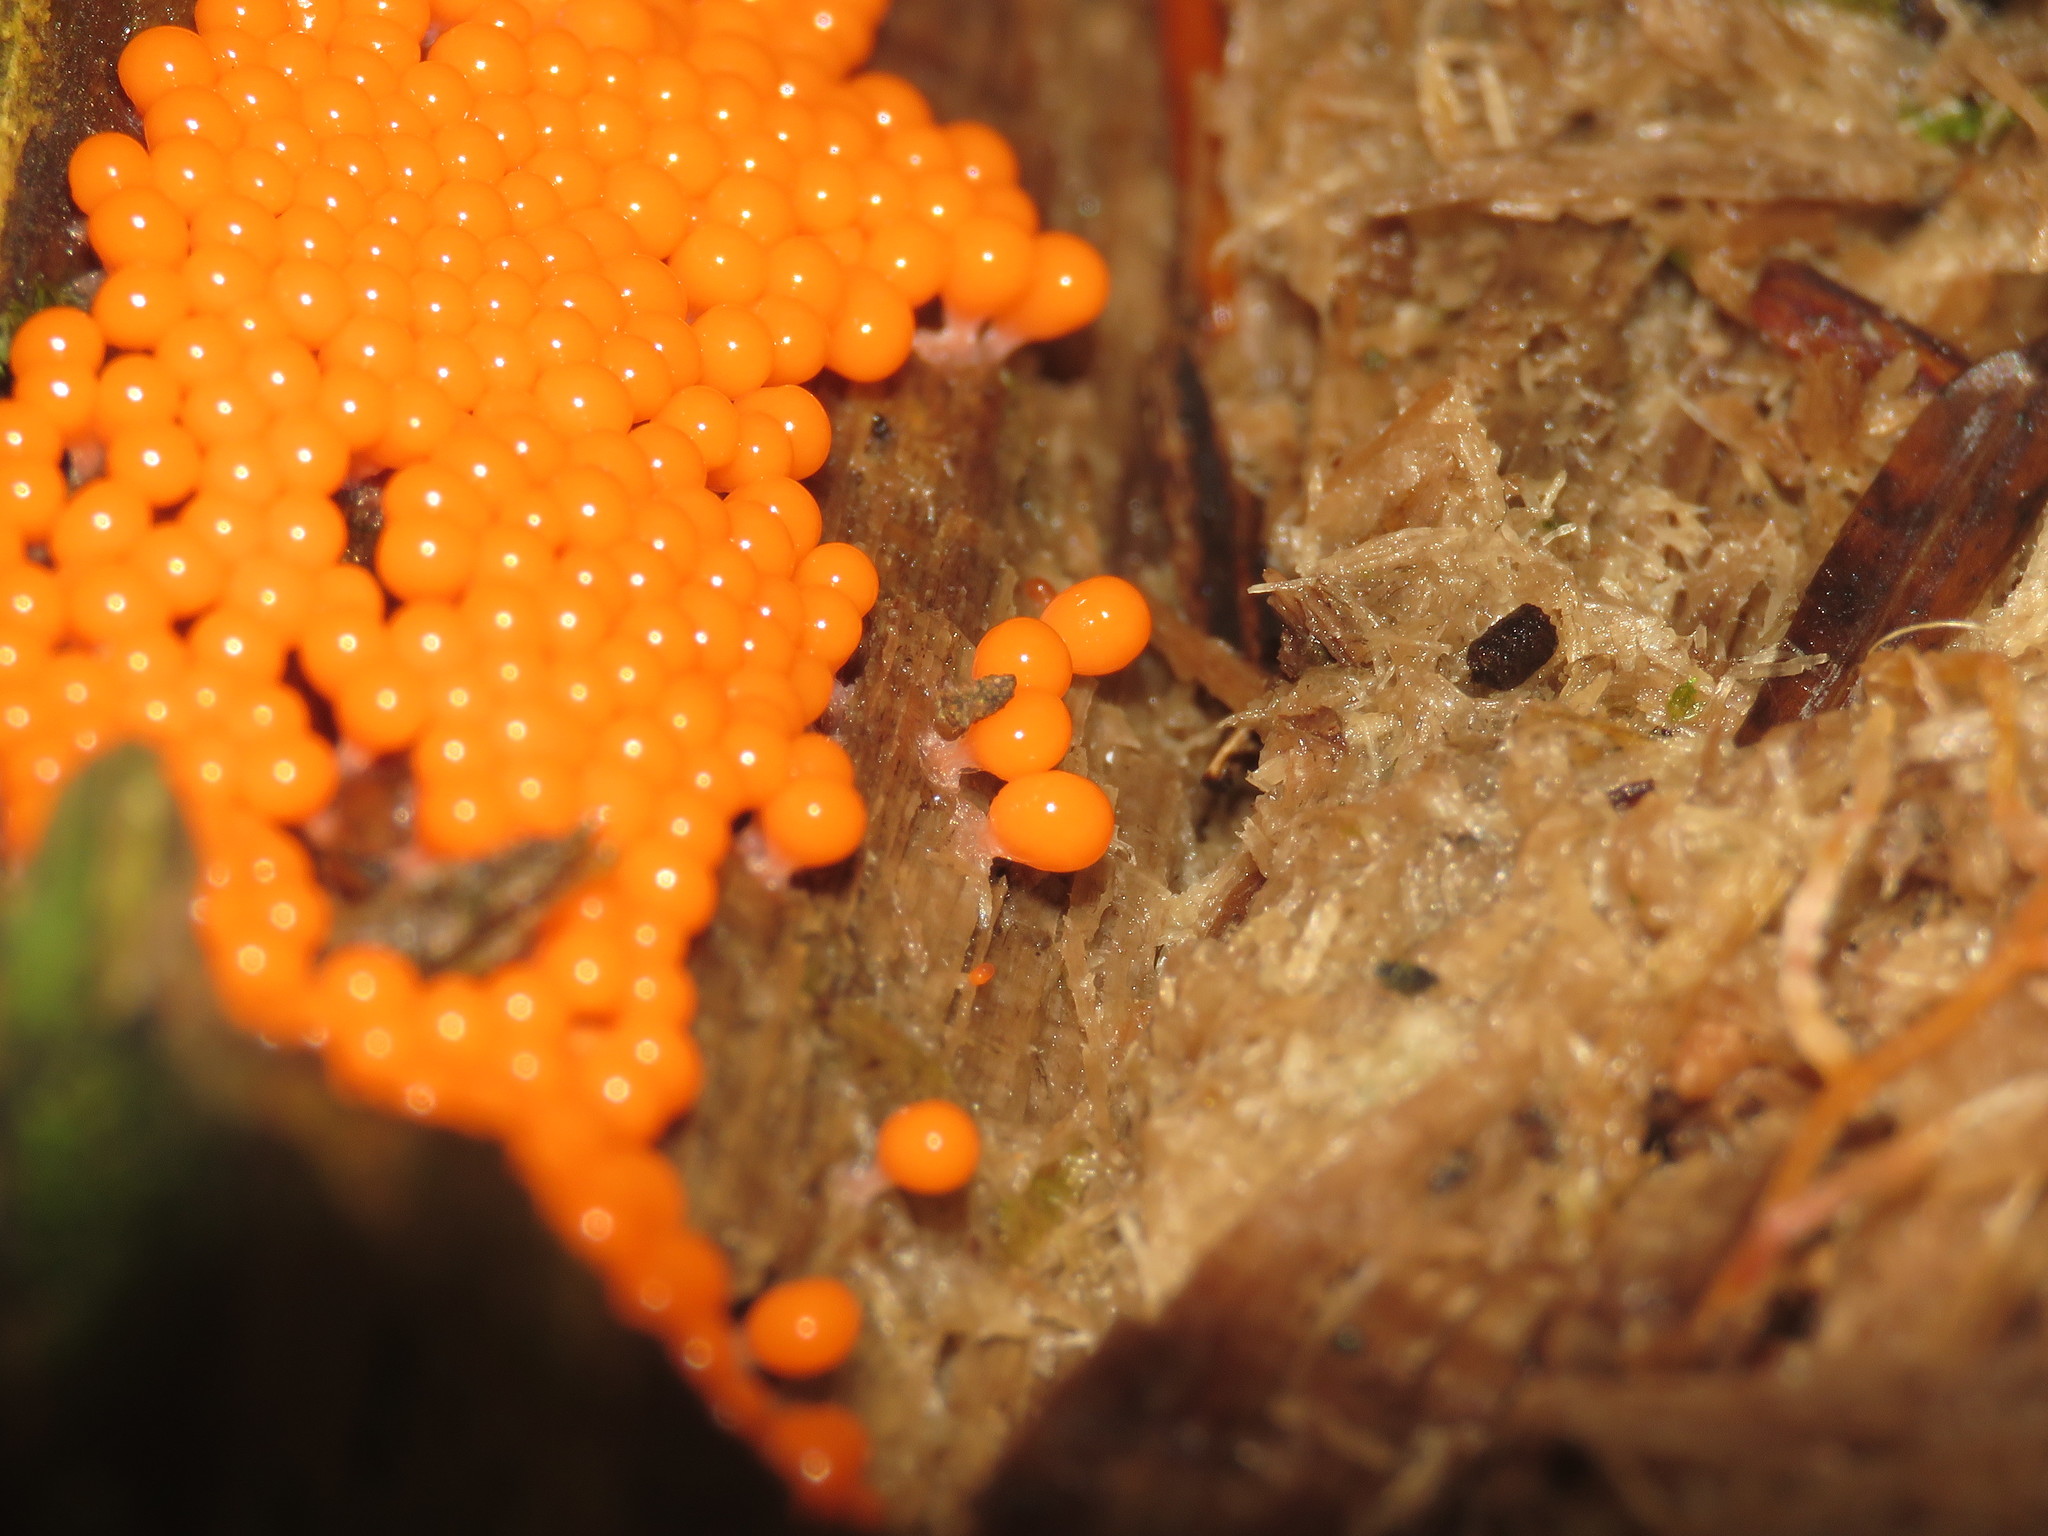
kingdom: Protozoa
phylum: Mycetozoa
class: Myxomycetes
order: Trichiales
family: Arcyriaceae
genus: Hemitrichia
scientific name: Hemitrichia decipiens
